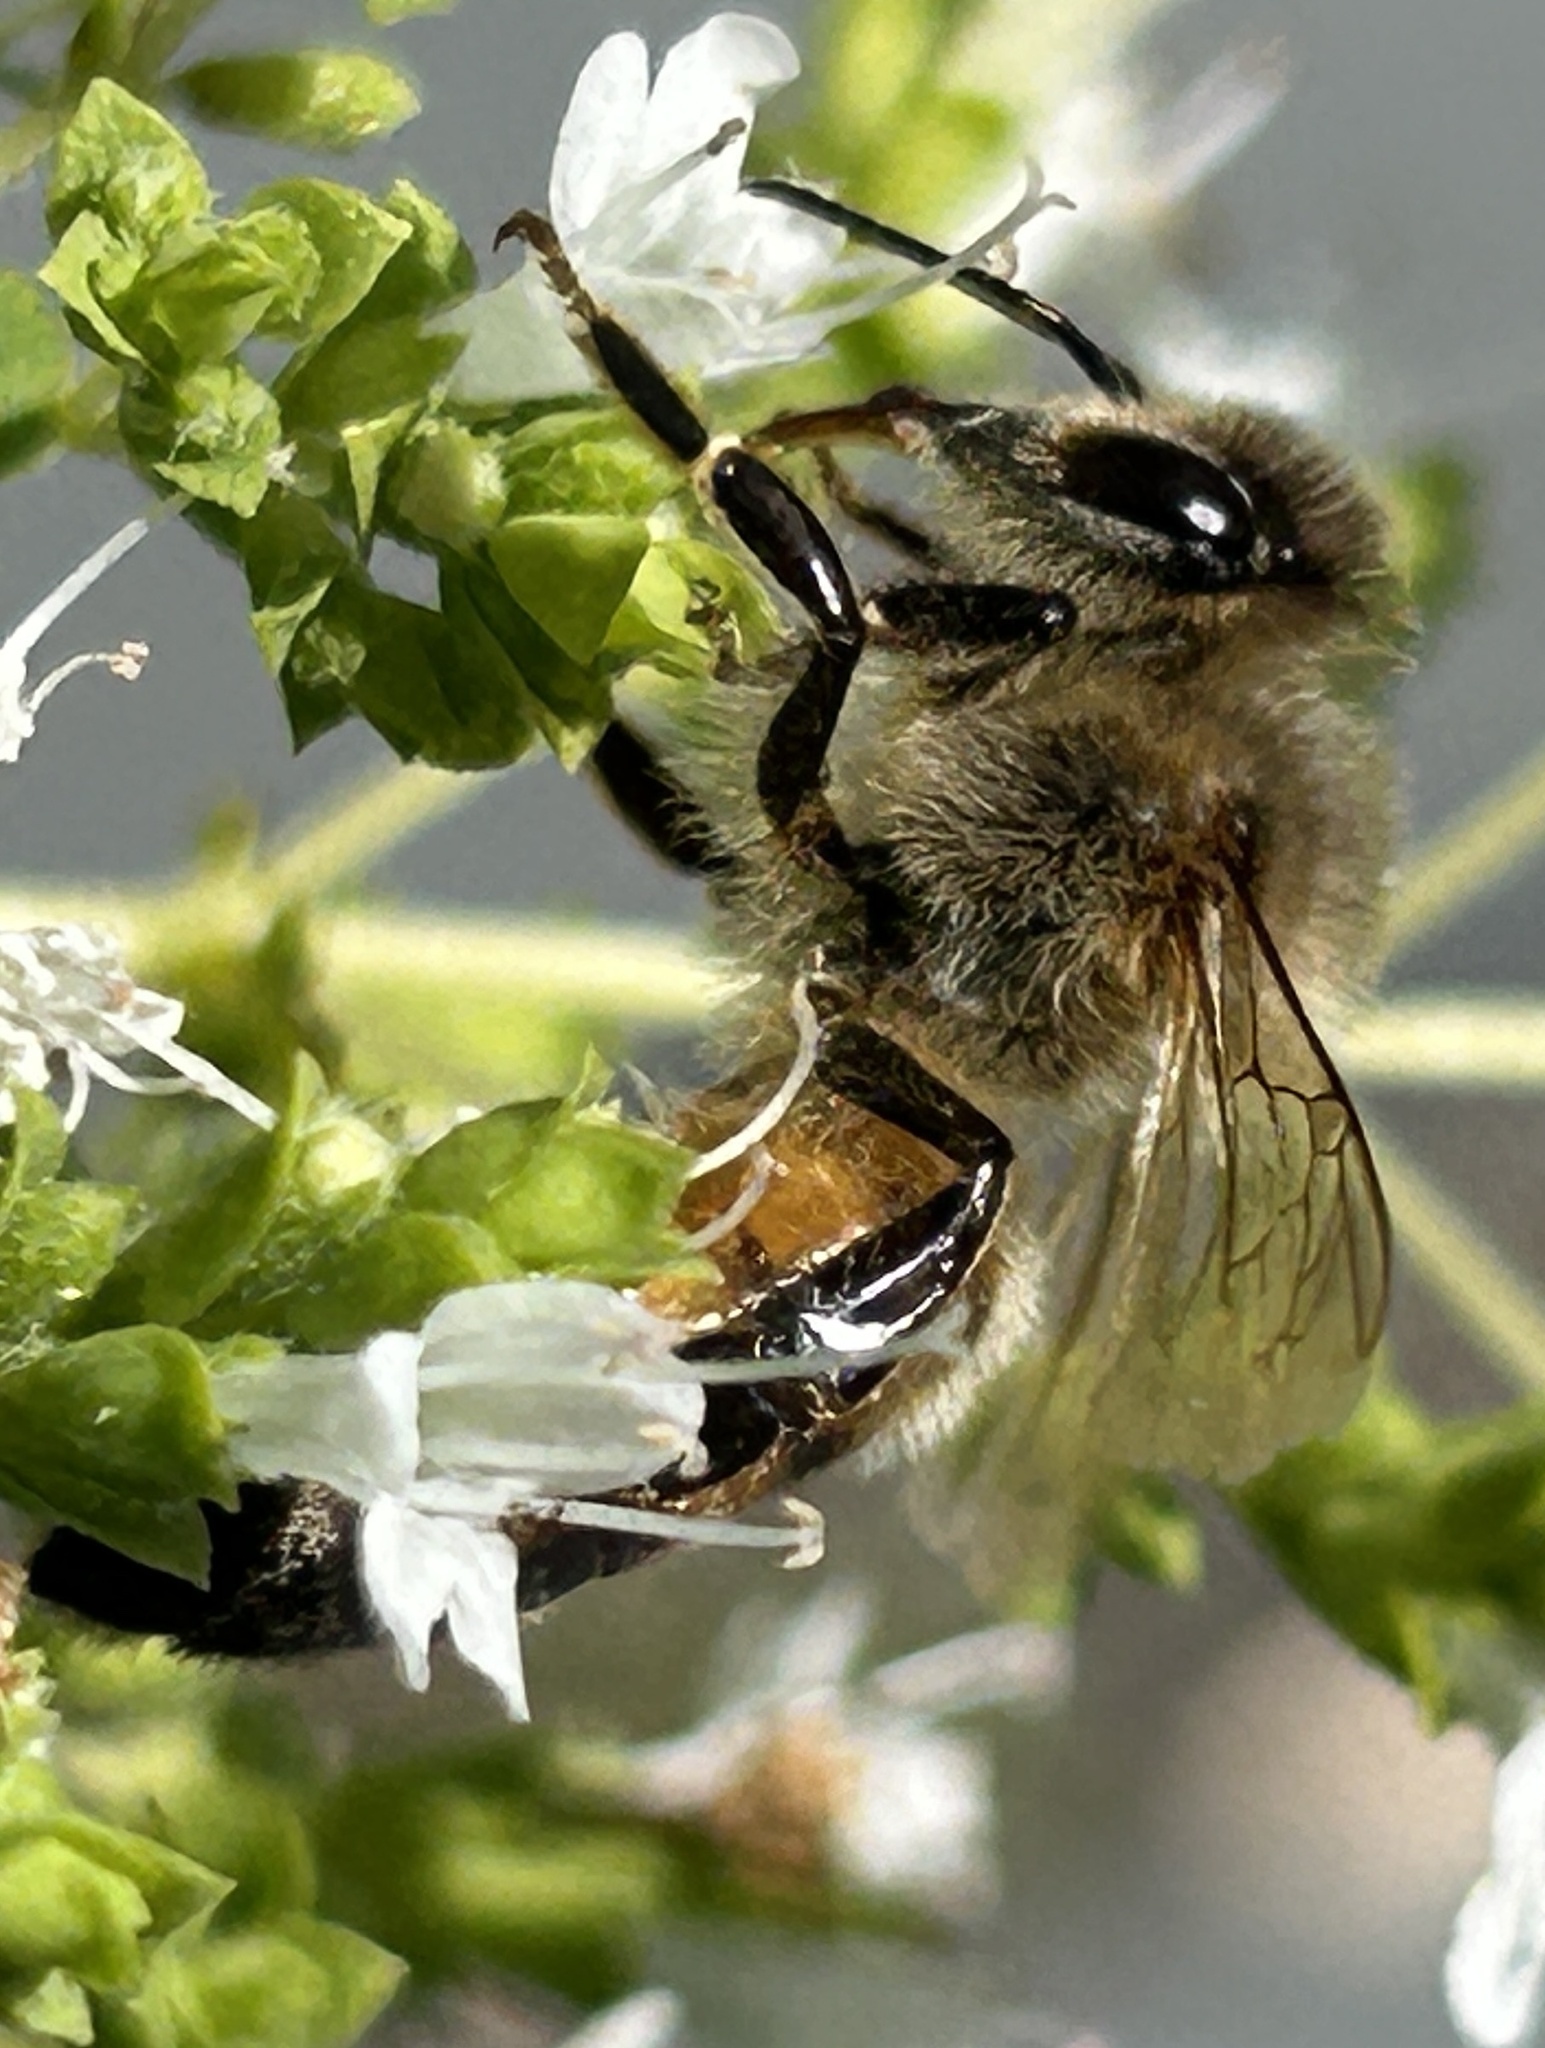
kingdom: Animalia
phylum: Arthropoda
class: Insecta
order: Hymenoptera
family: Apidae
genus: Apis
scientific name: Apis mellifera
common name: Honey bee
